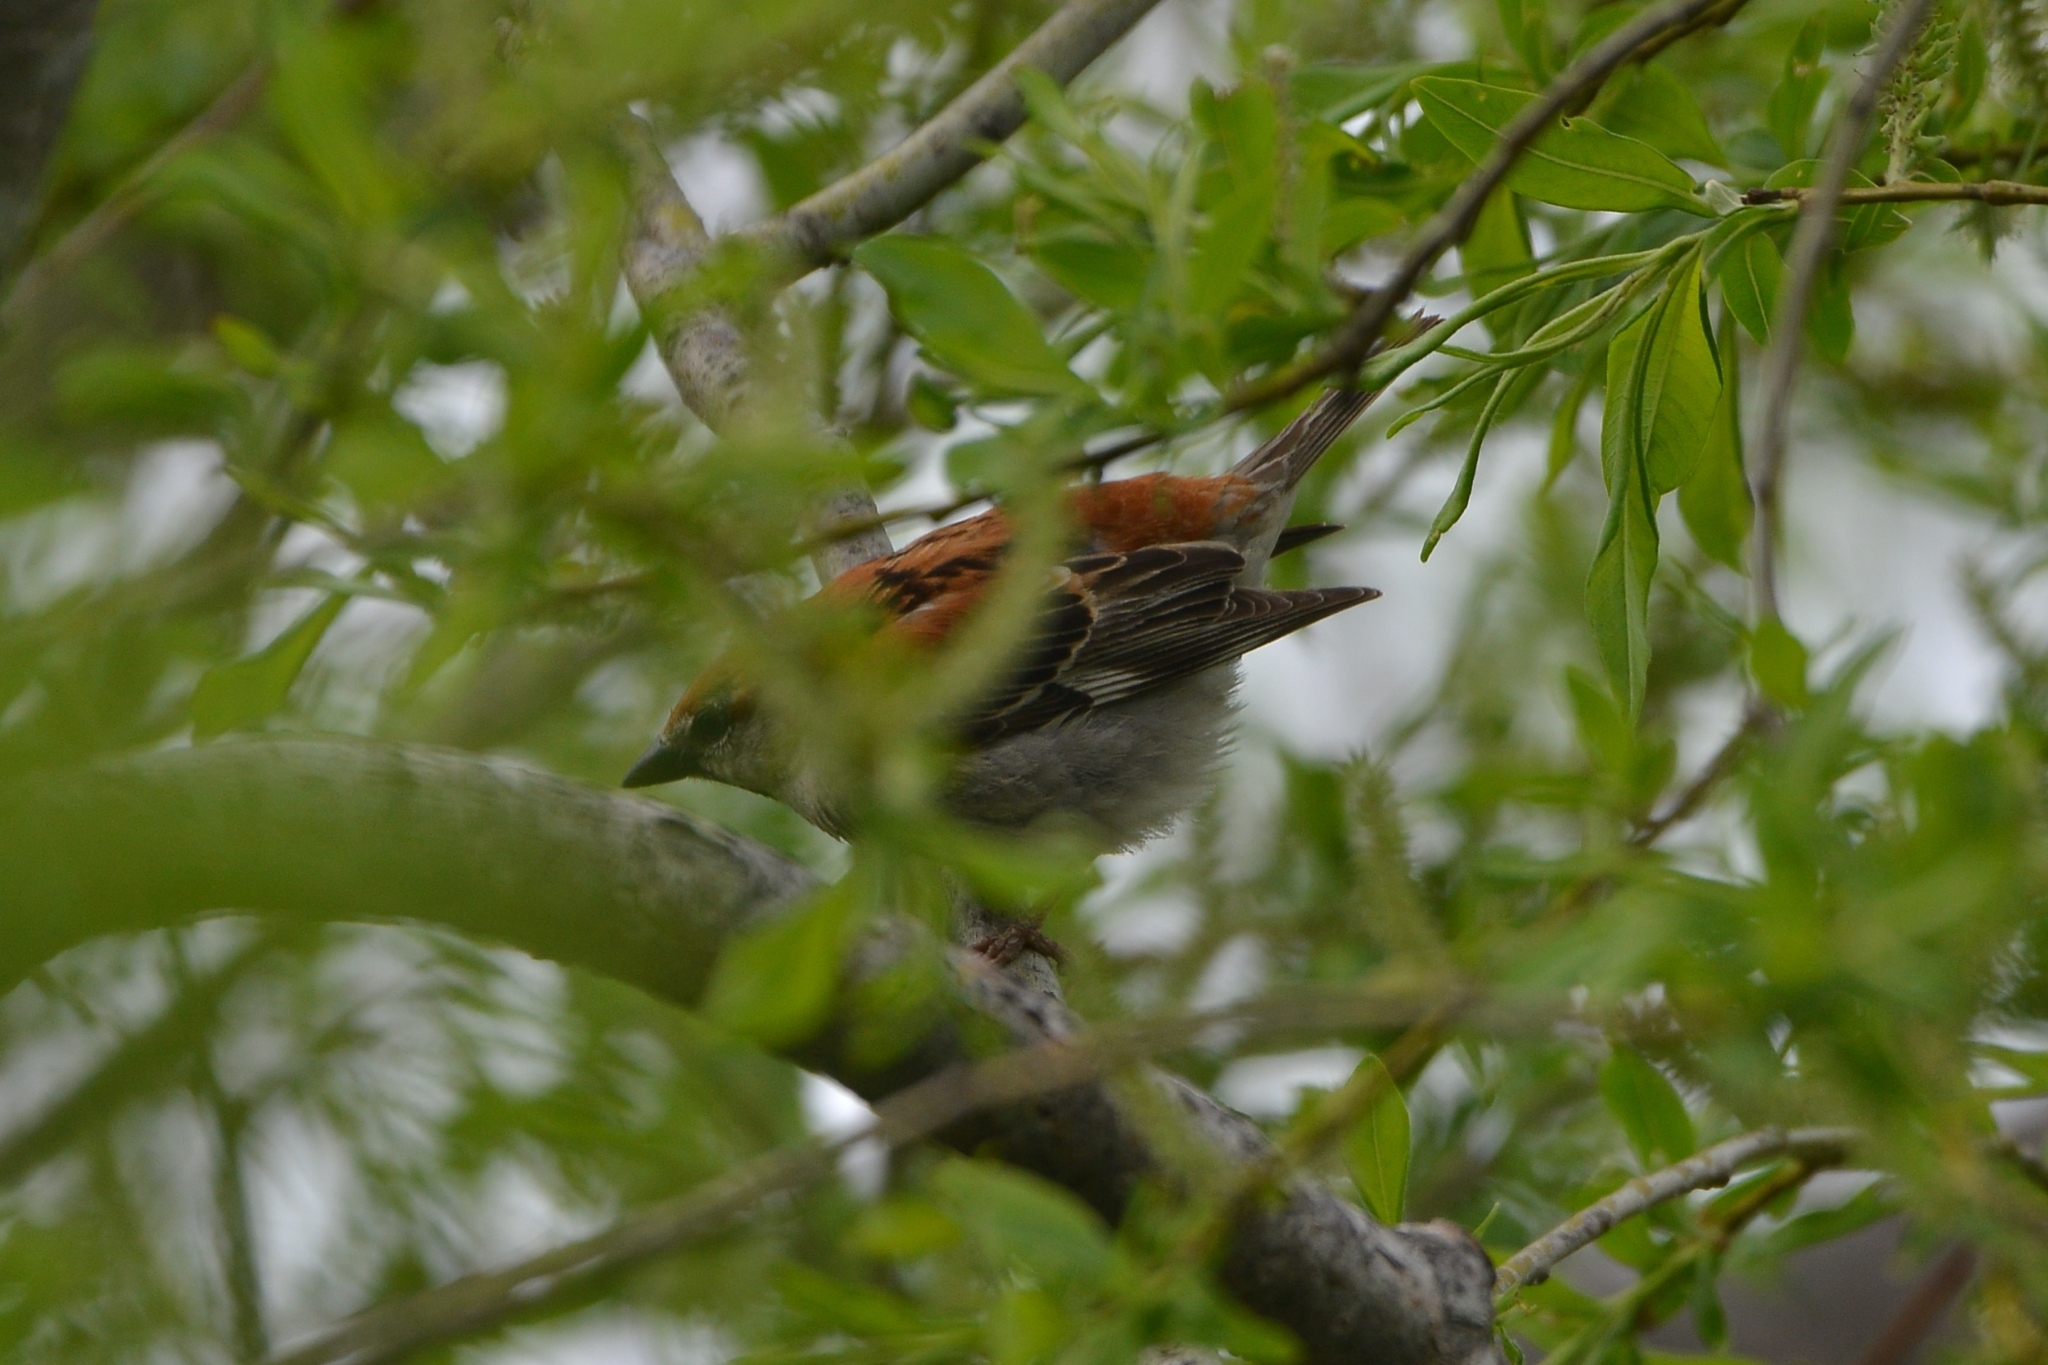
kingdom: Animalia
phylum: Chordata
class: Aves
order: Passeriformes
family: Passeridae
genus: Passer
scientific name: Passer rutilans
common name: Russet sparrow
